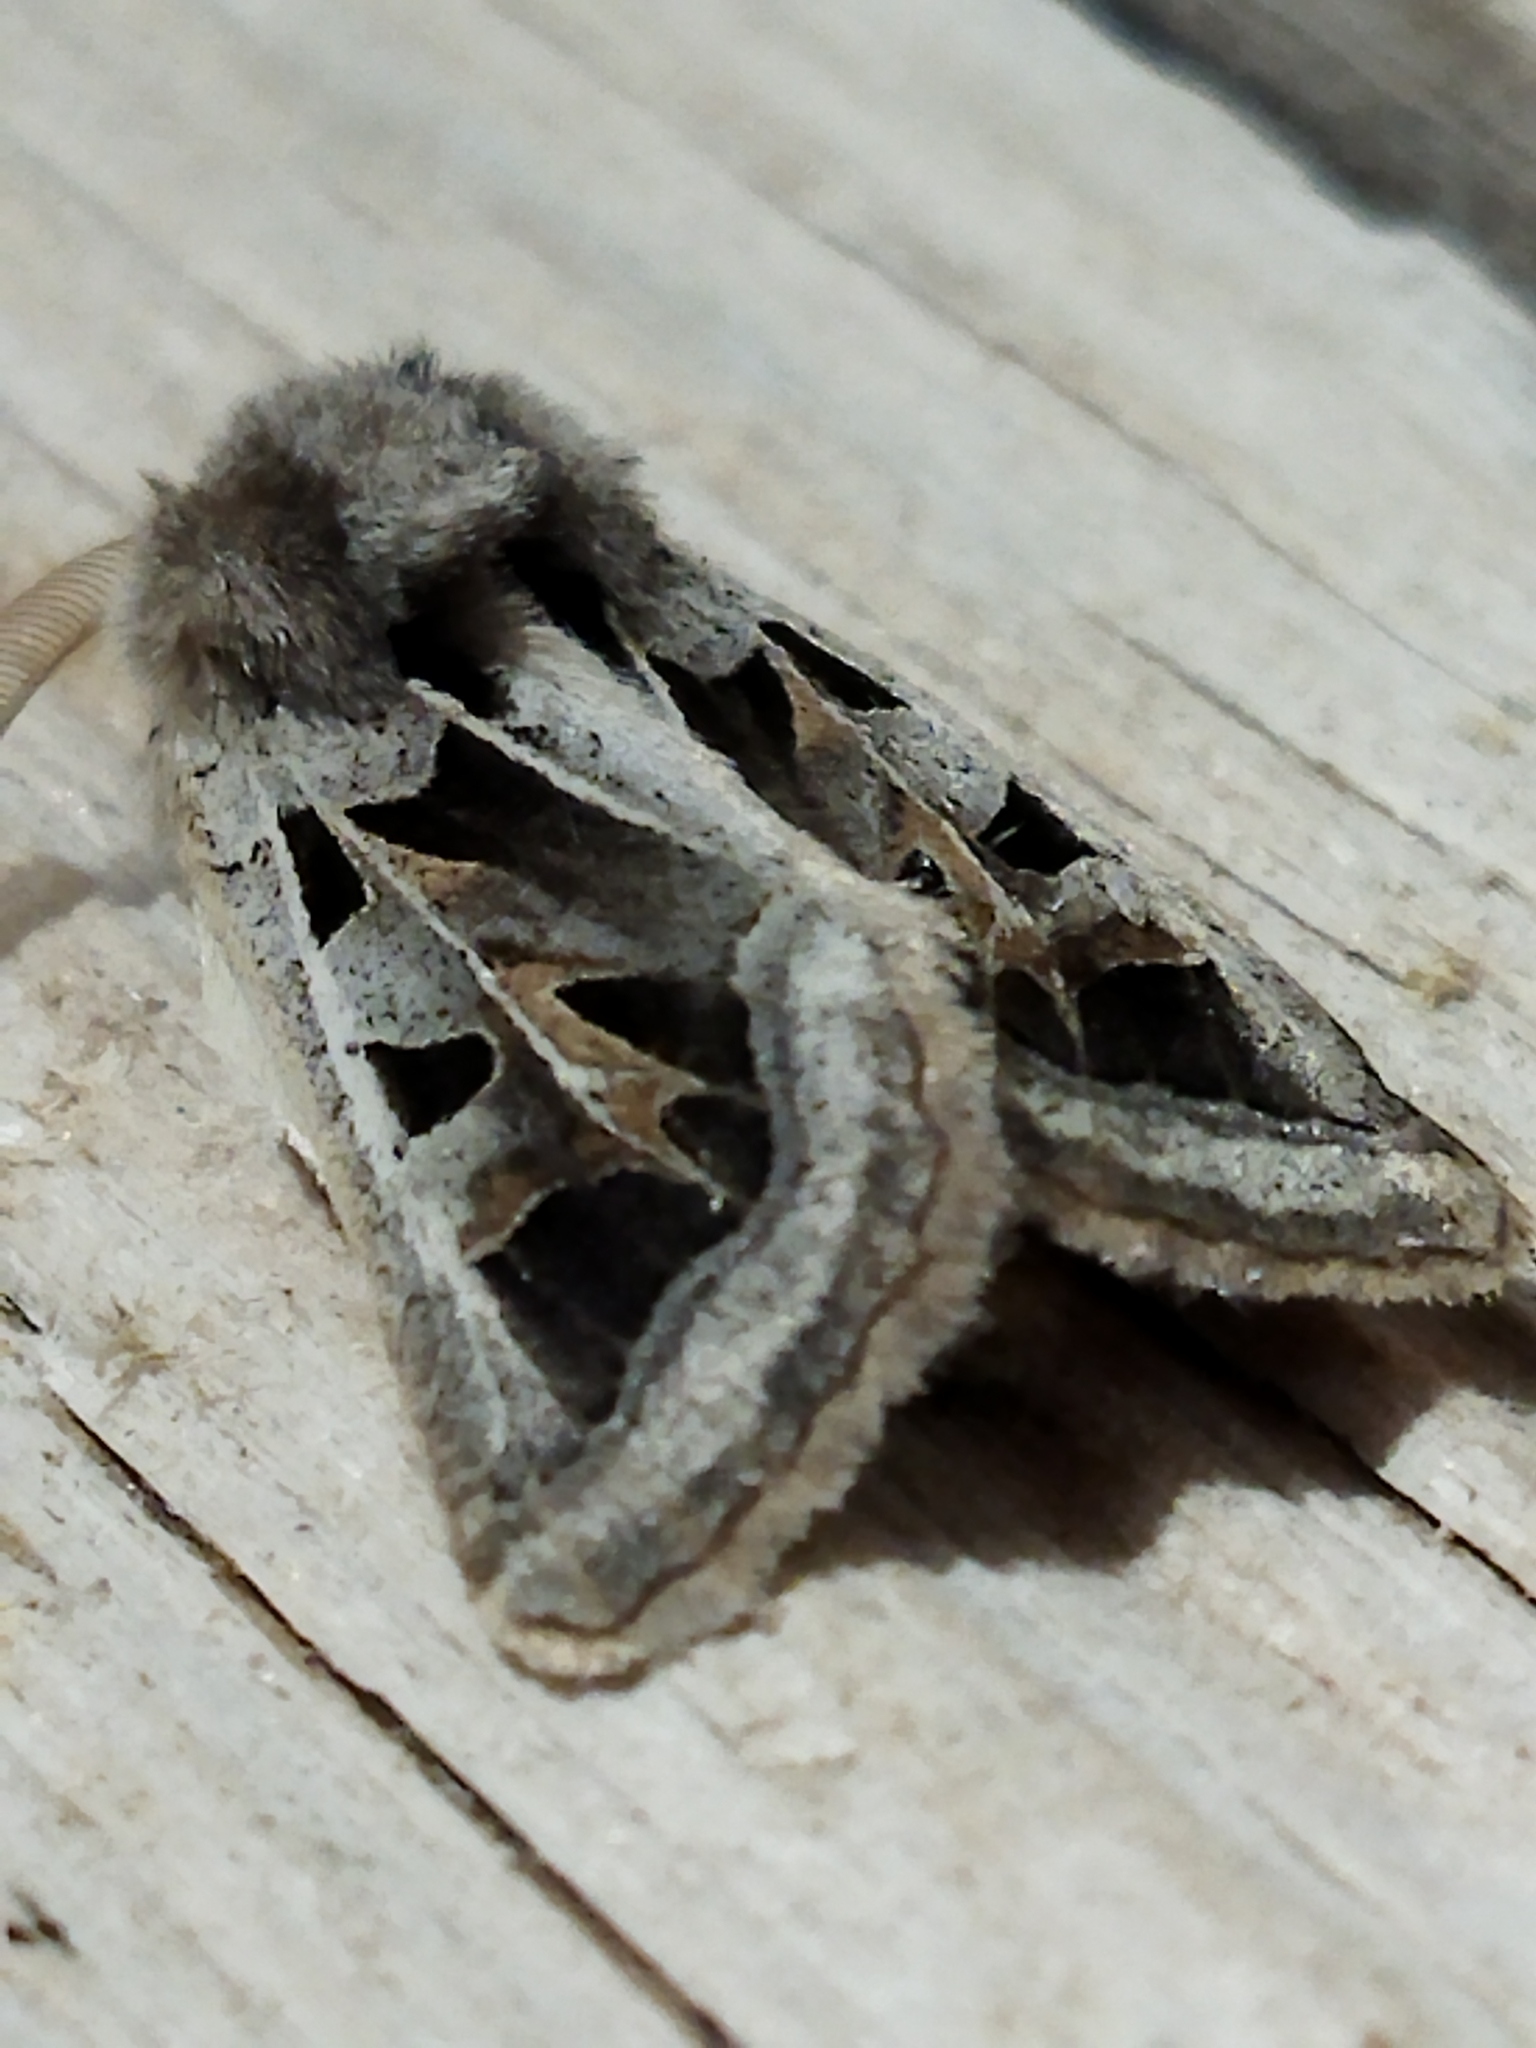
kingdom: Animalia
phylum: Arthropoda
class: Insecta
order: Lepidoptera
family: Noctuidae
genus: Episema
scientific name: Episema glaucina
